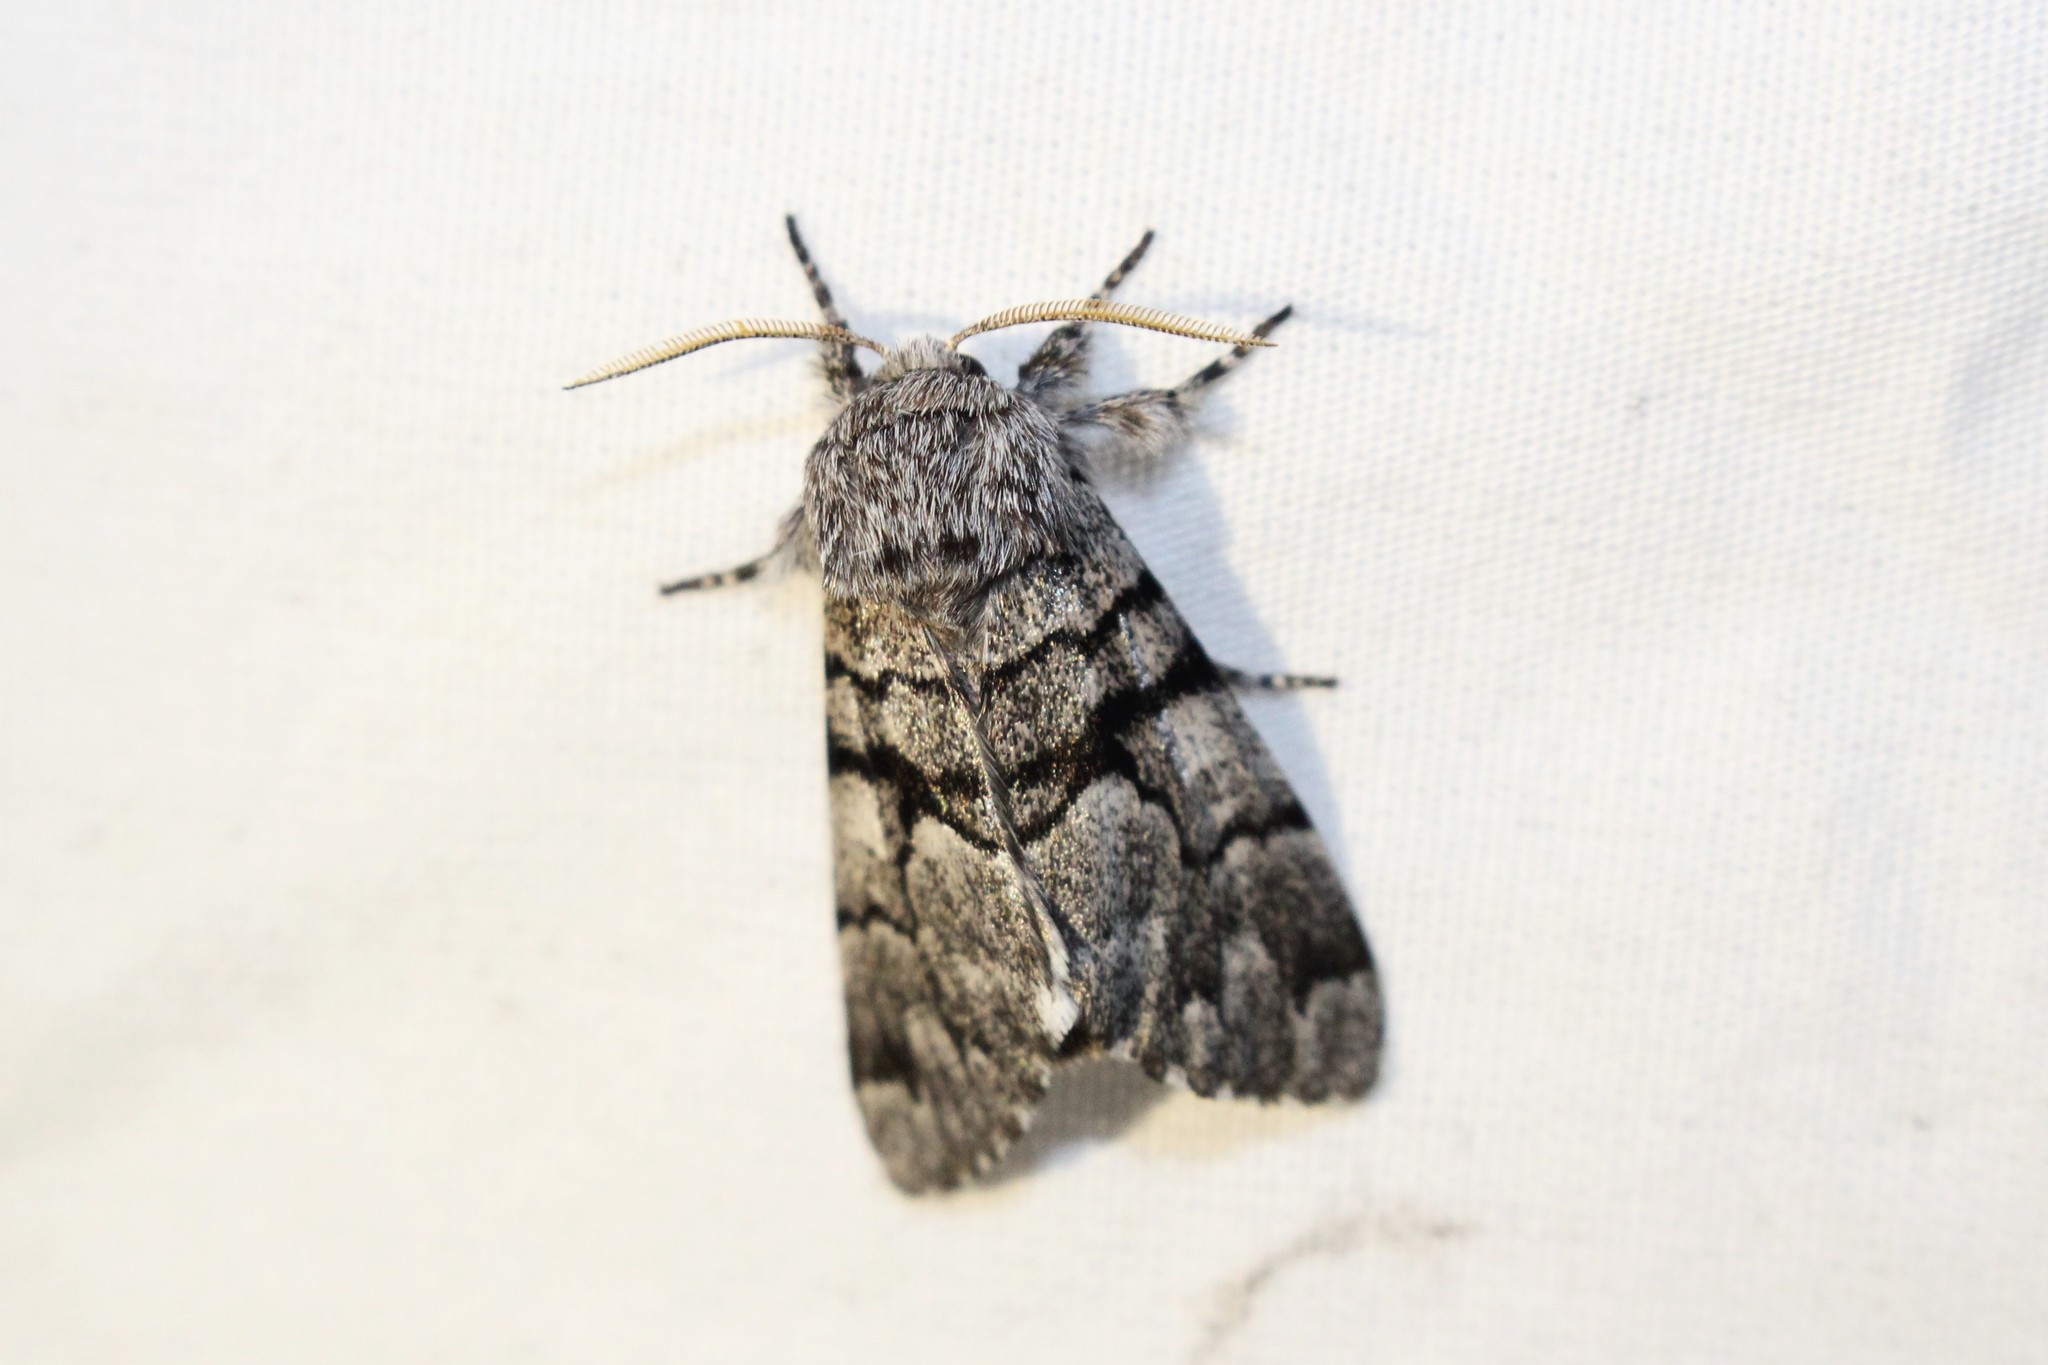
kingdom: Animalia
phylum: Arthropoda
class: Insecta
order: Lepidoptera
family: Noctuidae
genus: Panthea
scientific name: Panthea furcilla
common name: Eastern panthea moth
